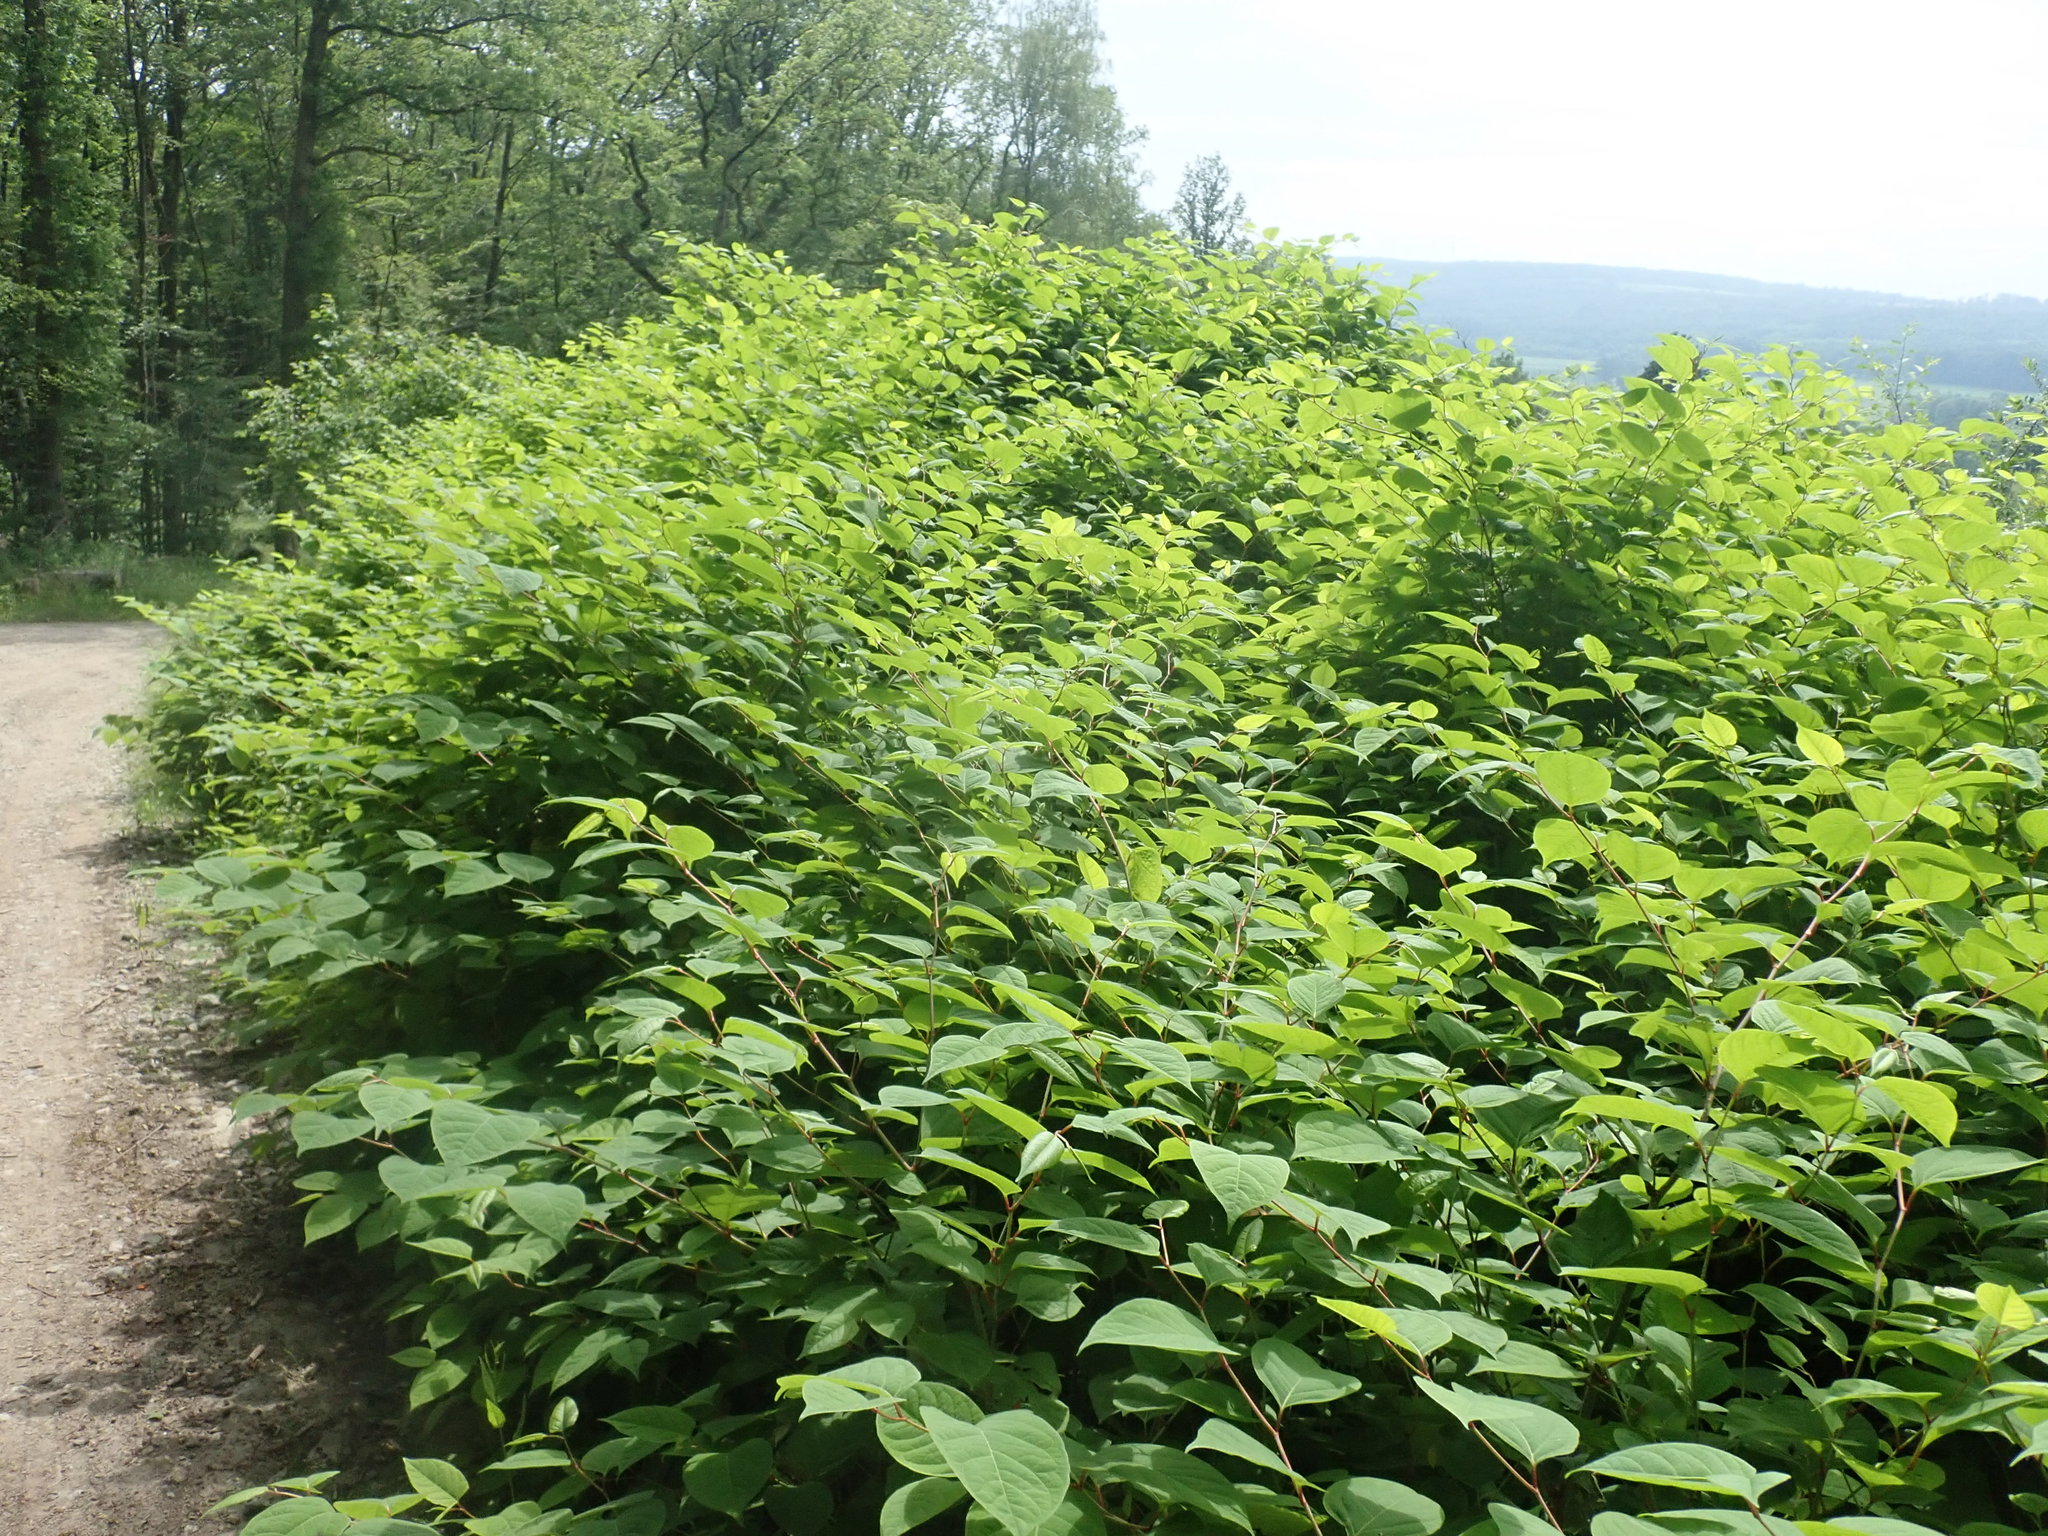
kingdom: Plantae
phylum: Tracheophyta
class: Magnoliopsida
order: Caryophyllales
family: Polygonaceae
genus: Reynoutria
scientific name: Reynoutria japonica
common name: Japanese knotweed
